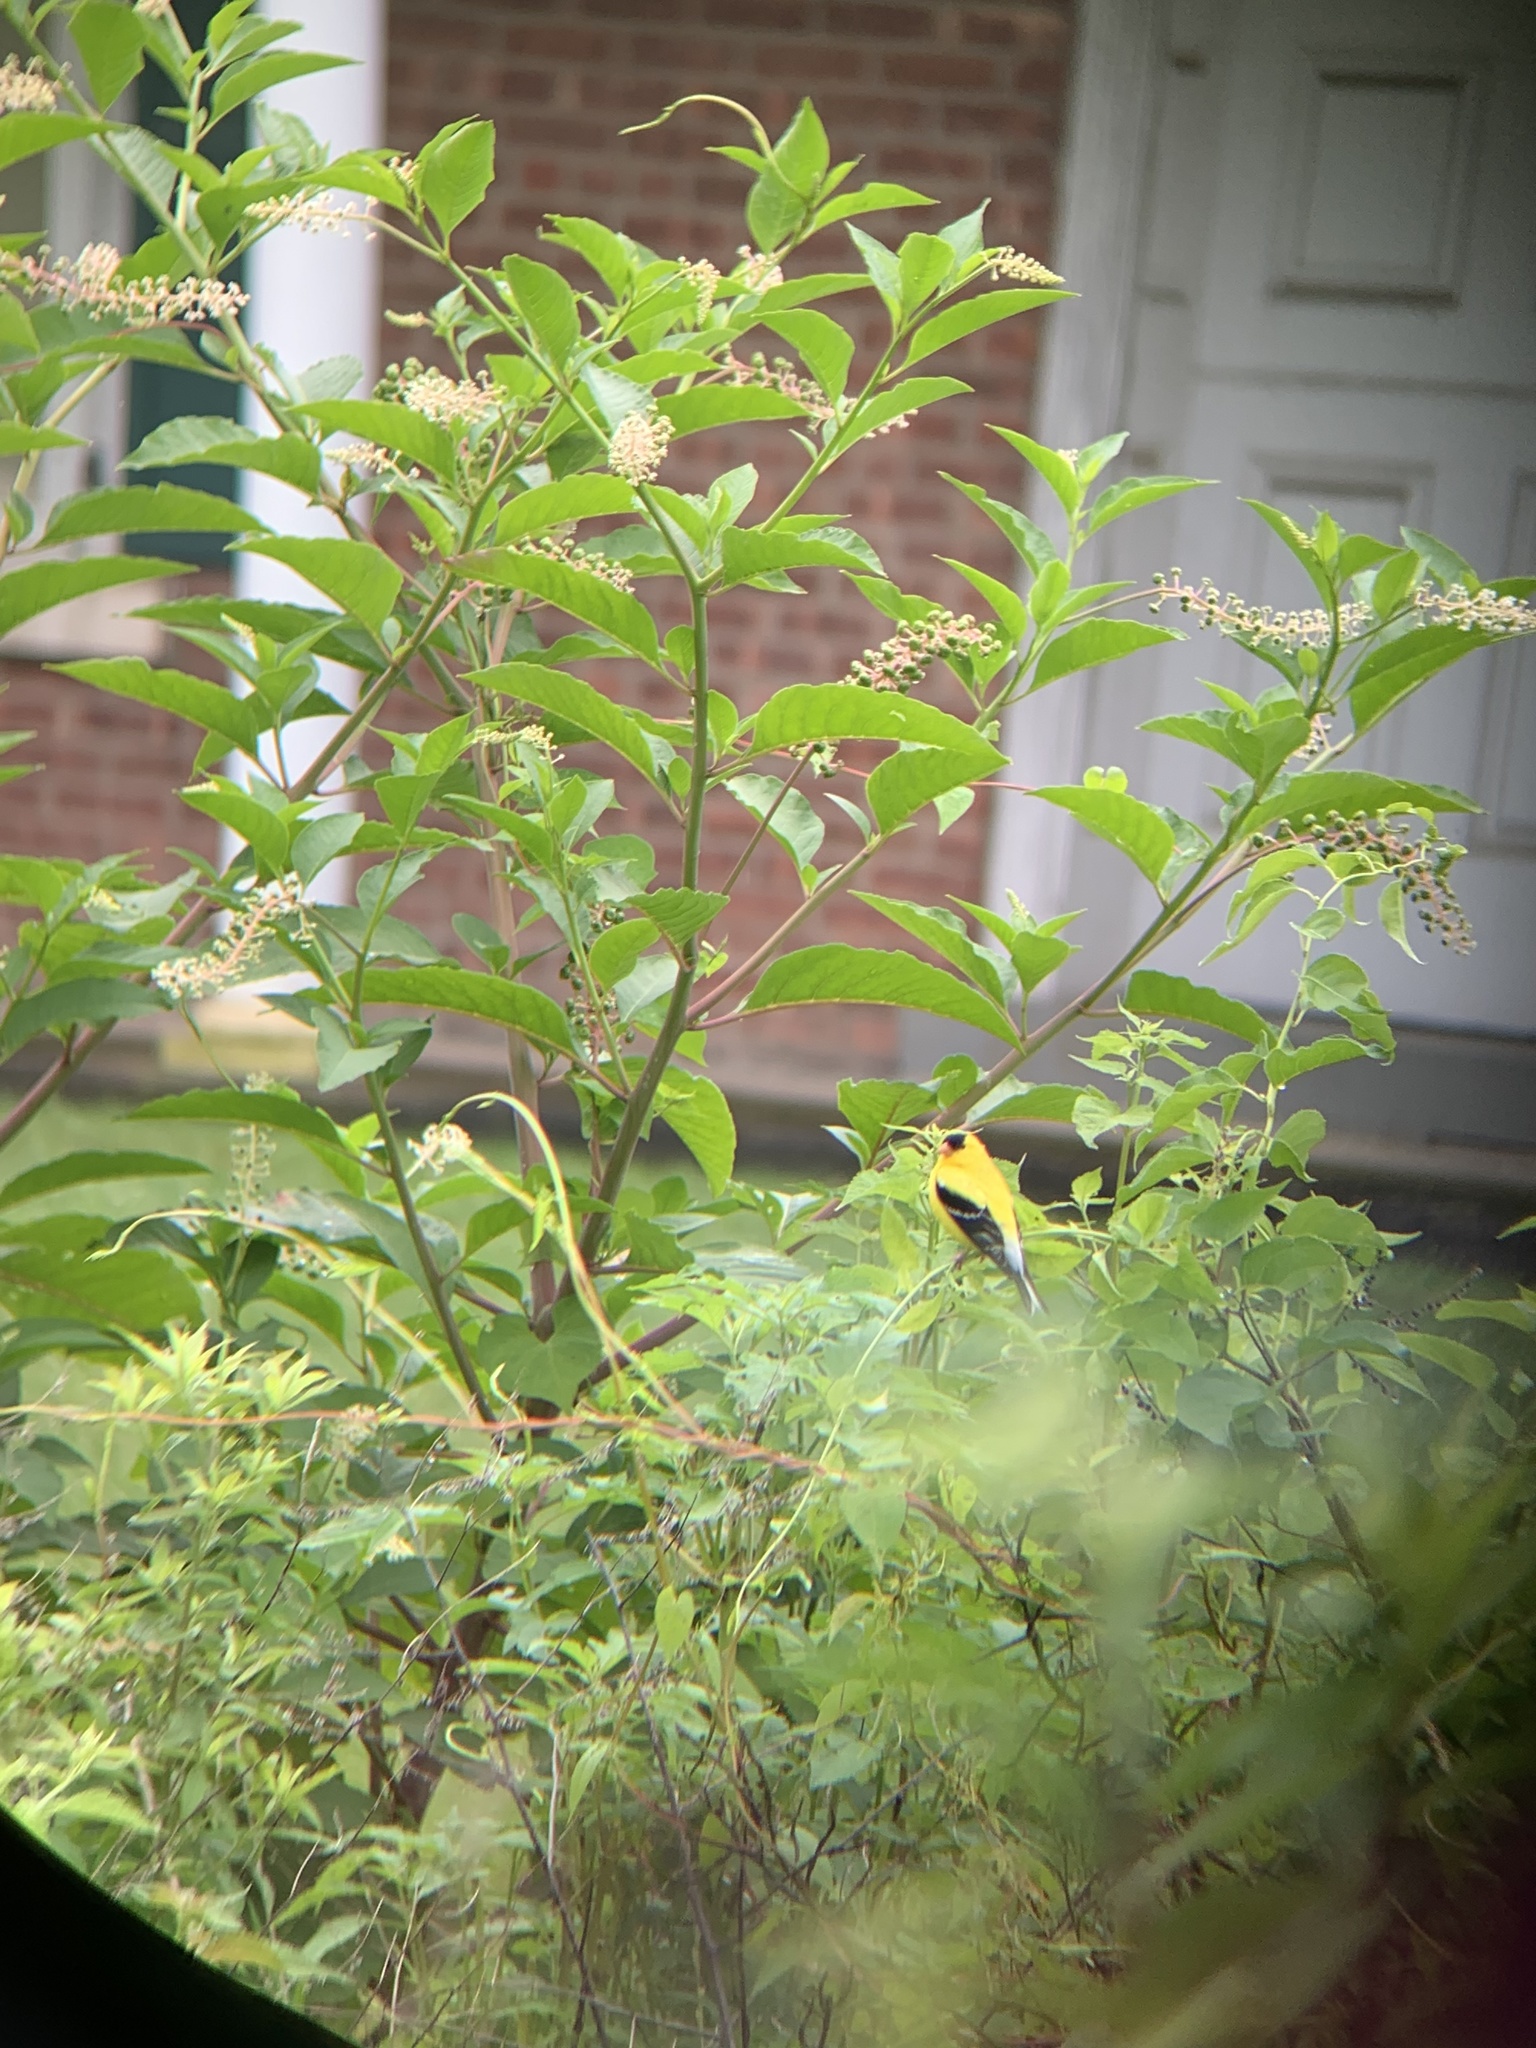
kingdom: Animalia
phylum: Chordata
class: Aves
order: Passeriformes
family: Fringillidae
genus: Spinus
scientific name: Spinus tristis
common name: American goldfinch
